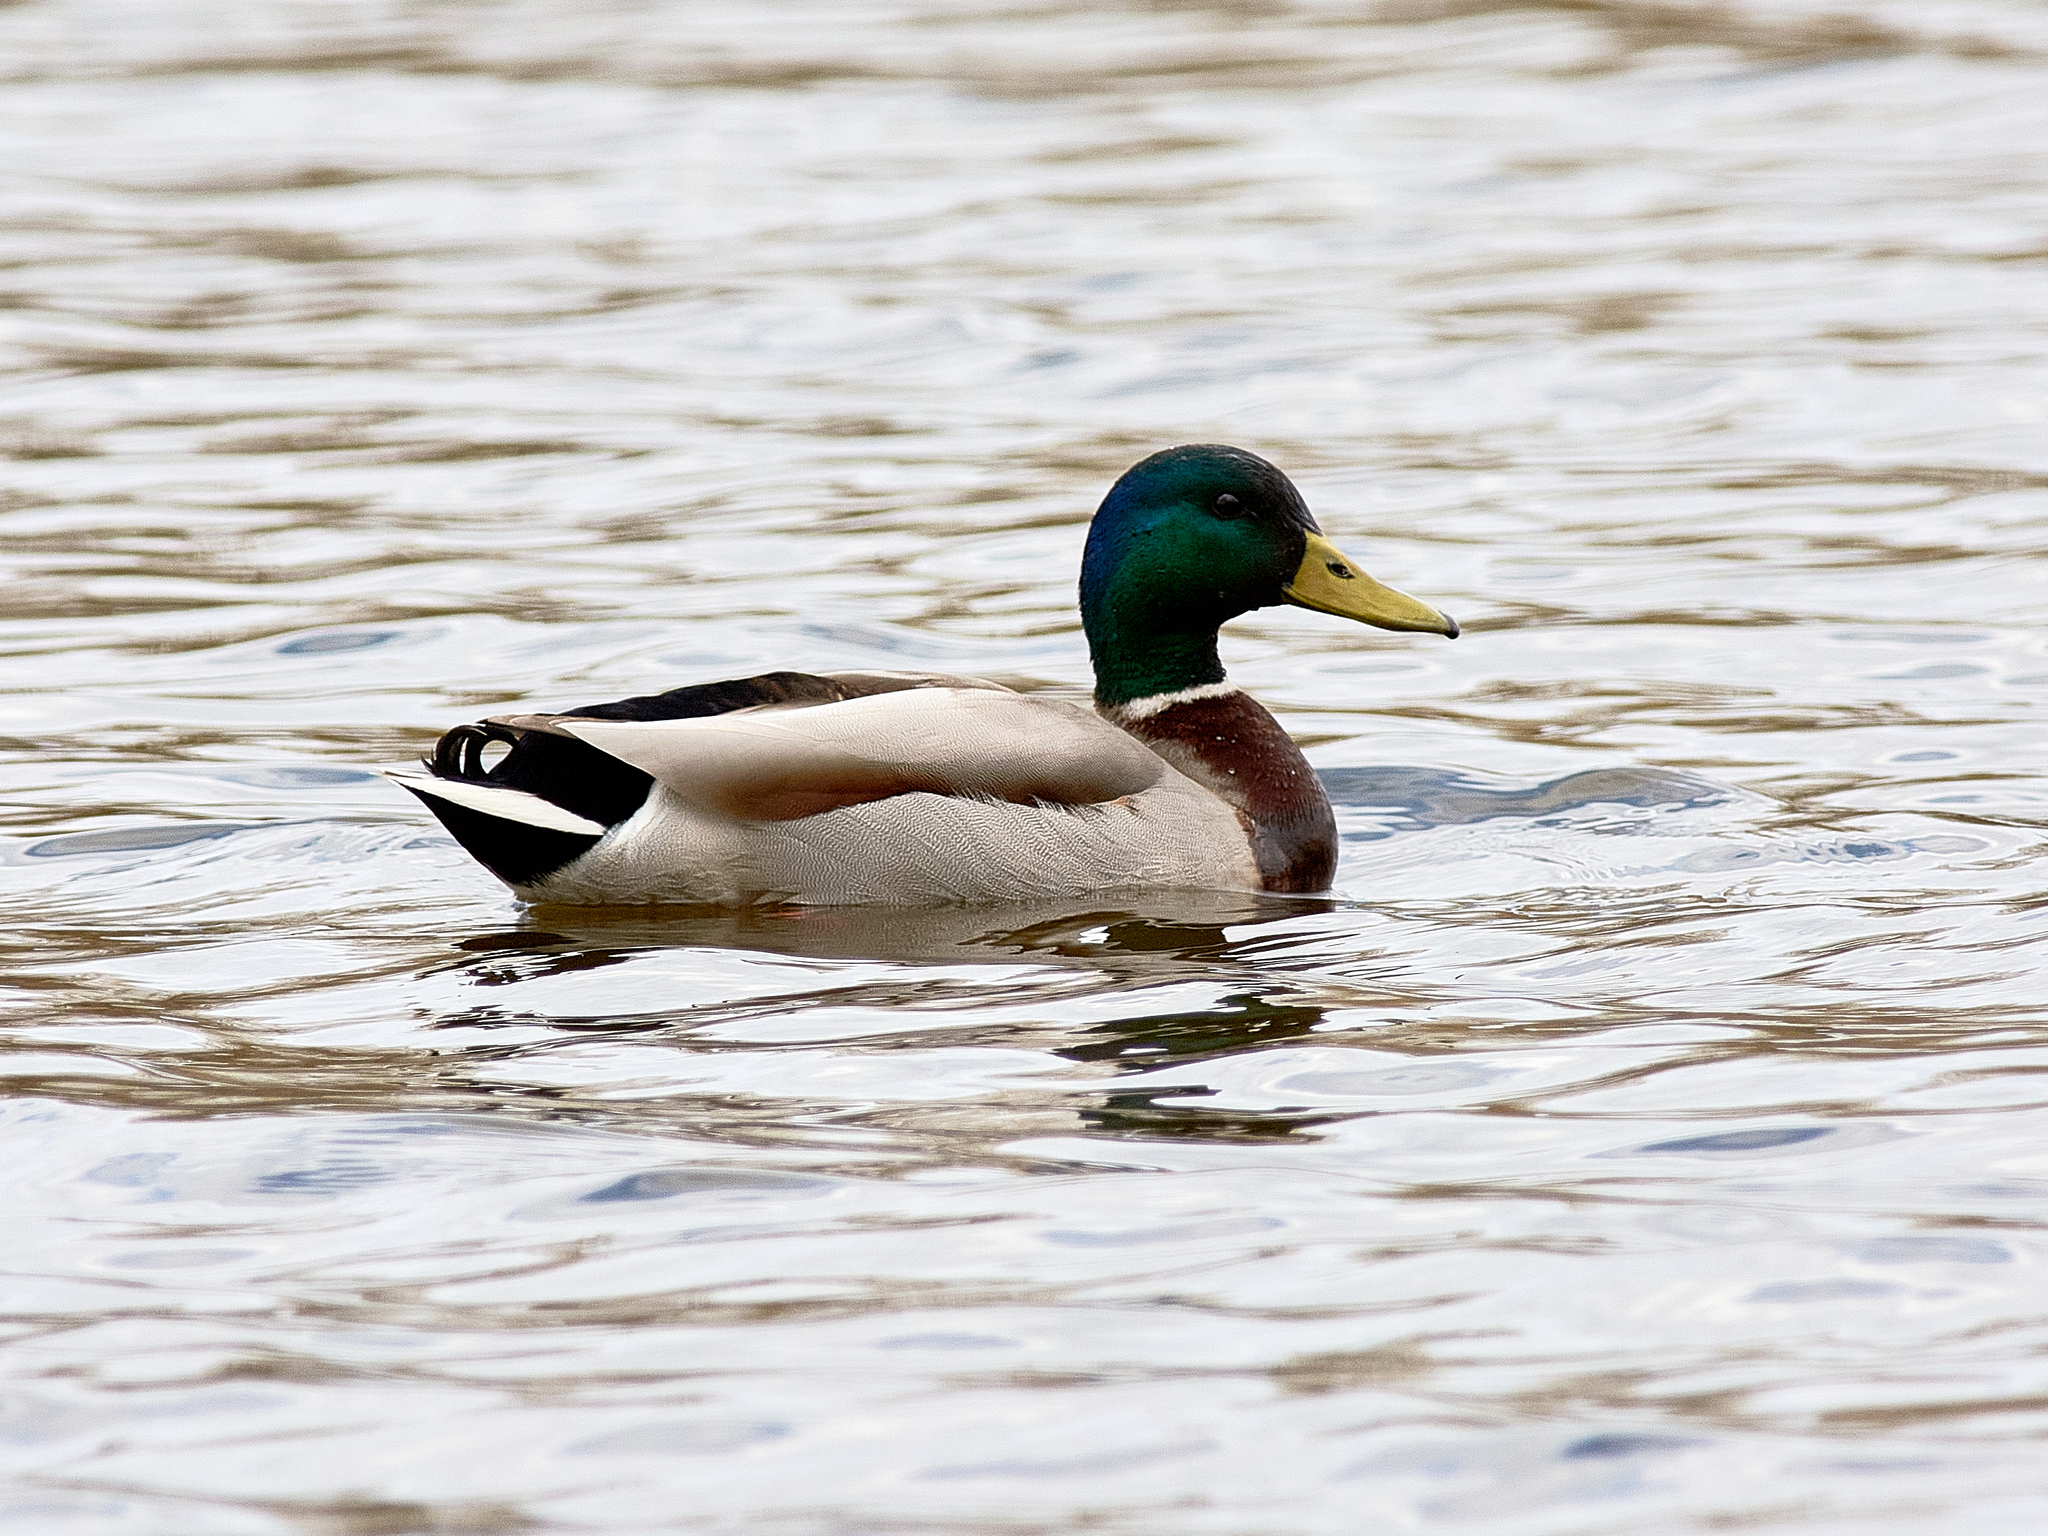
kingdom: Animalia
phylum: Chordata
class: Aves
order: Anseriformes
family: Anatidae
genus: Anas
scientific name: Anas platyrhynchos
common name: Mallard
